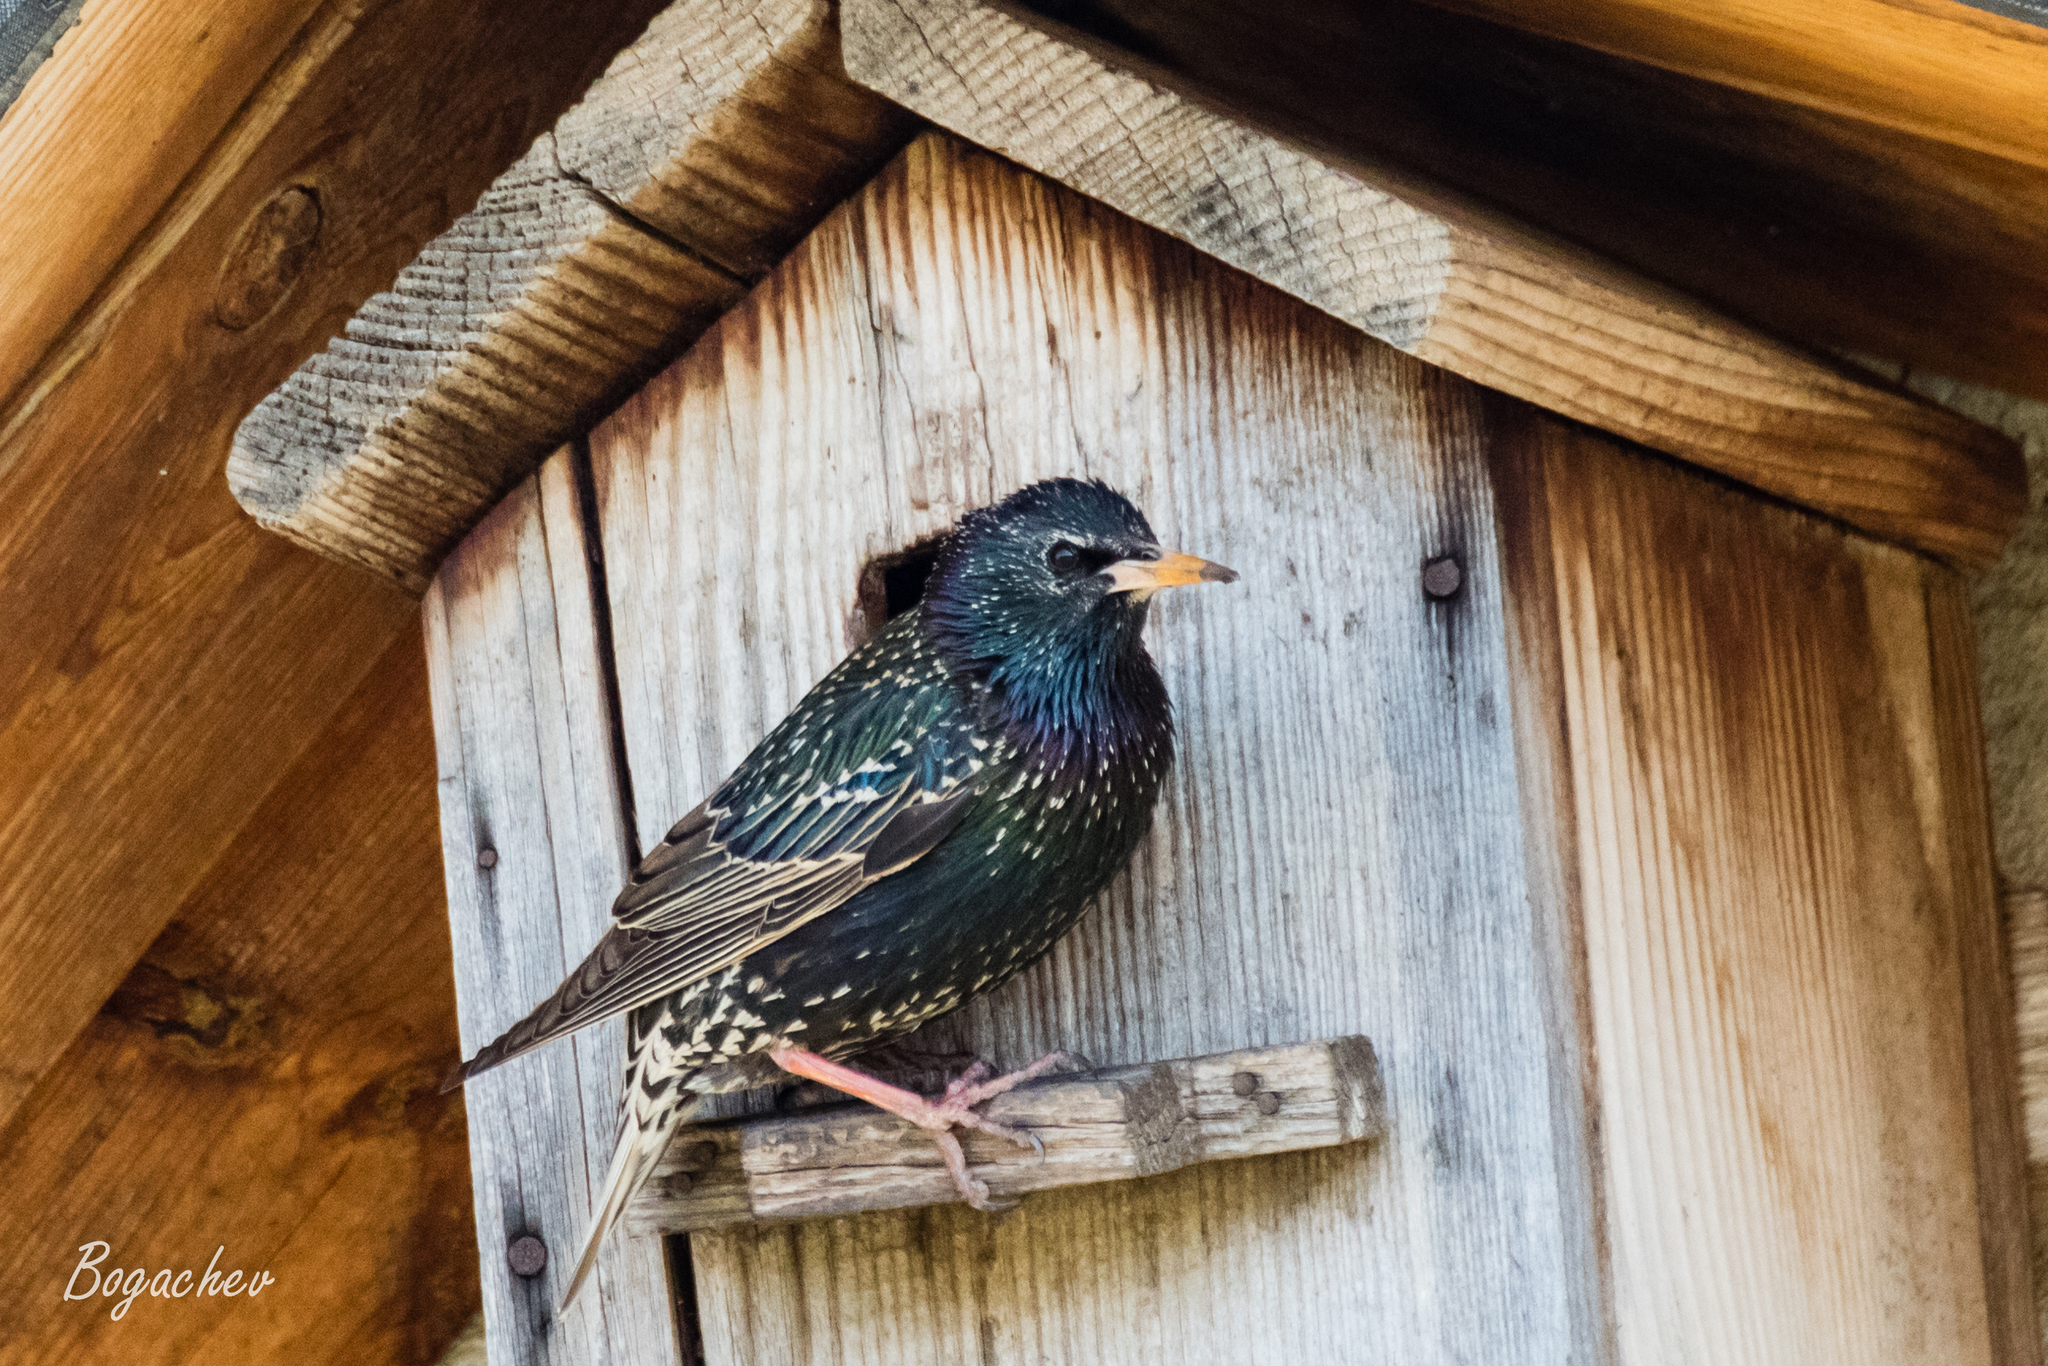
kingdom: Animalia
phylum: Chordata
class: Aves
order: Passeriformes
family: Sturnidae
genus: Sturnus
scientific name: Sturnus vulgaris
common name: Common starling
